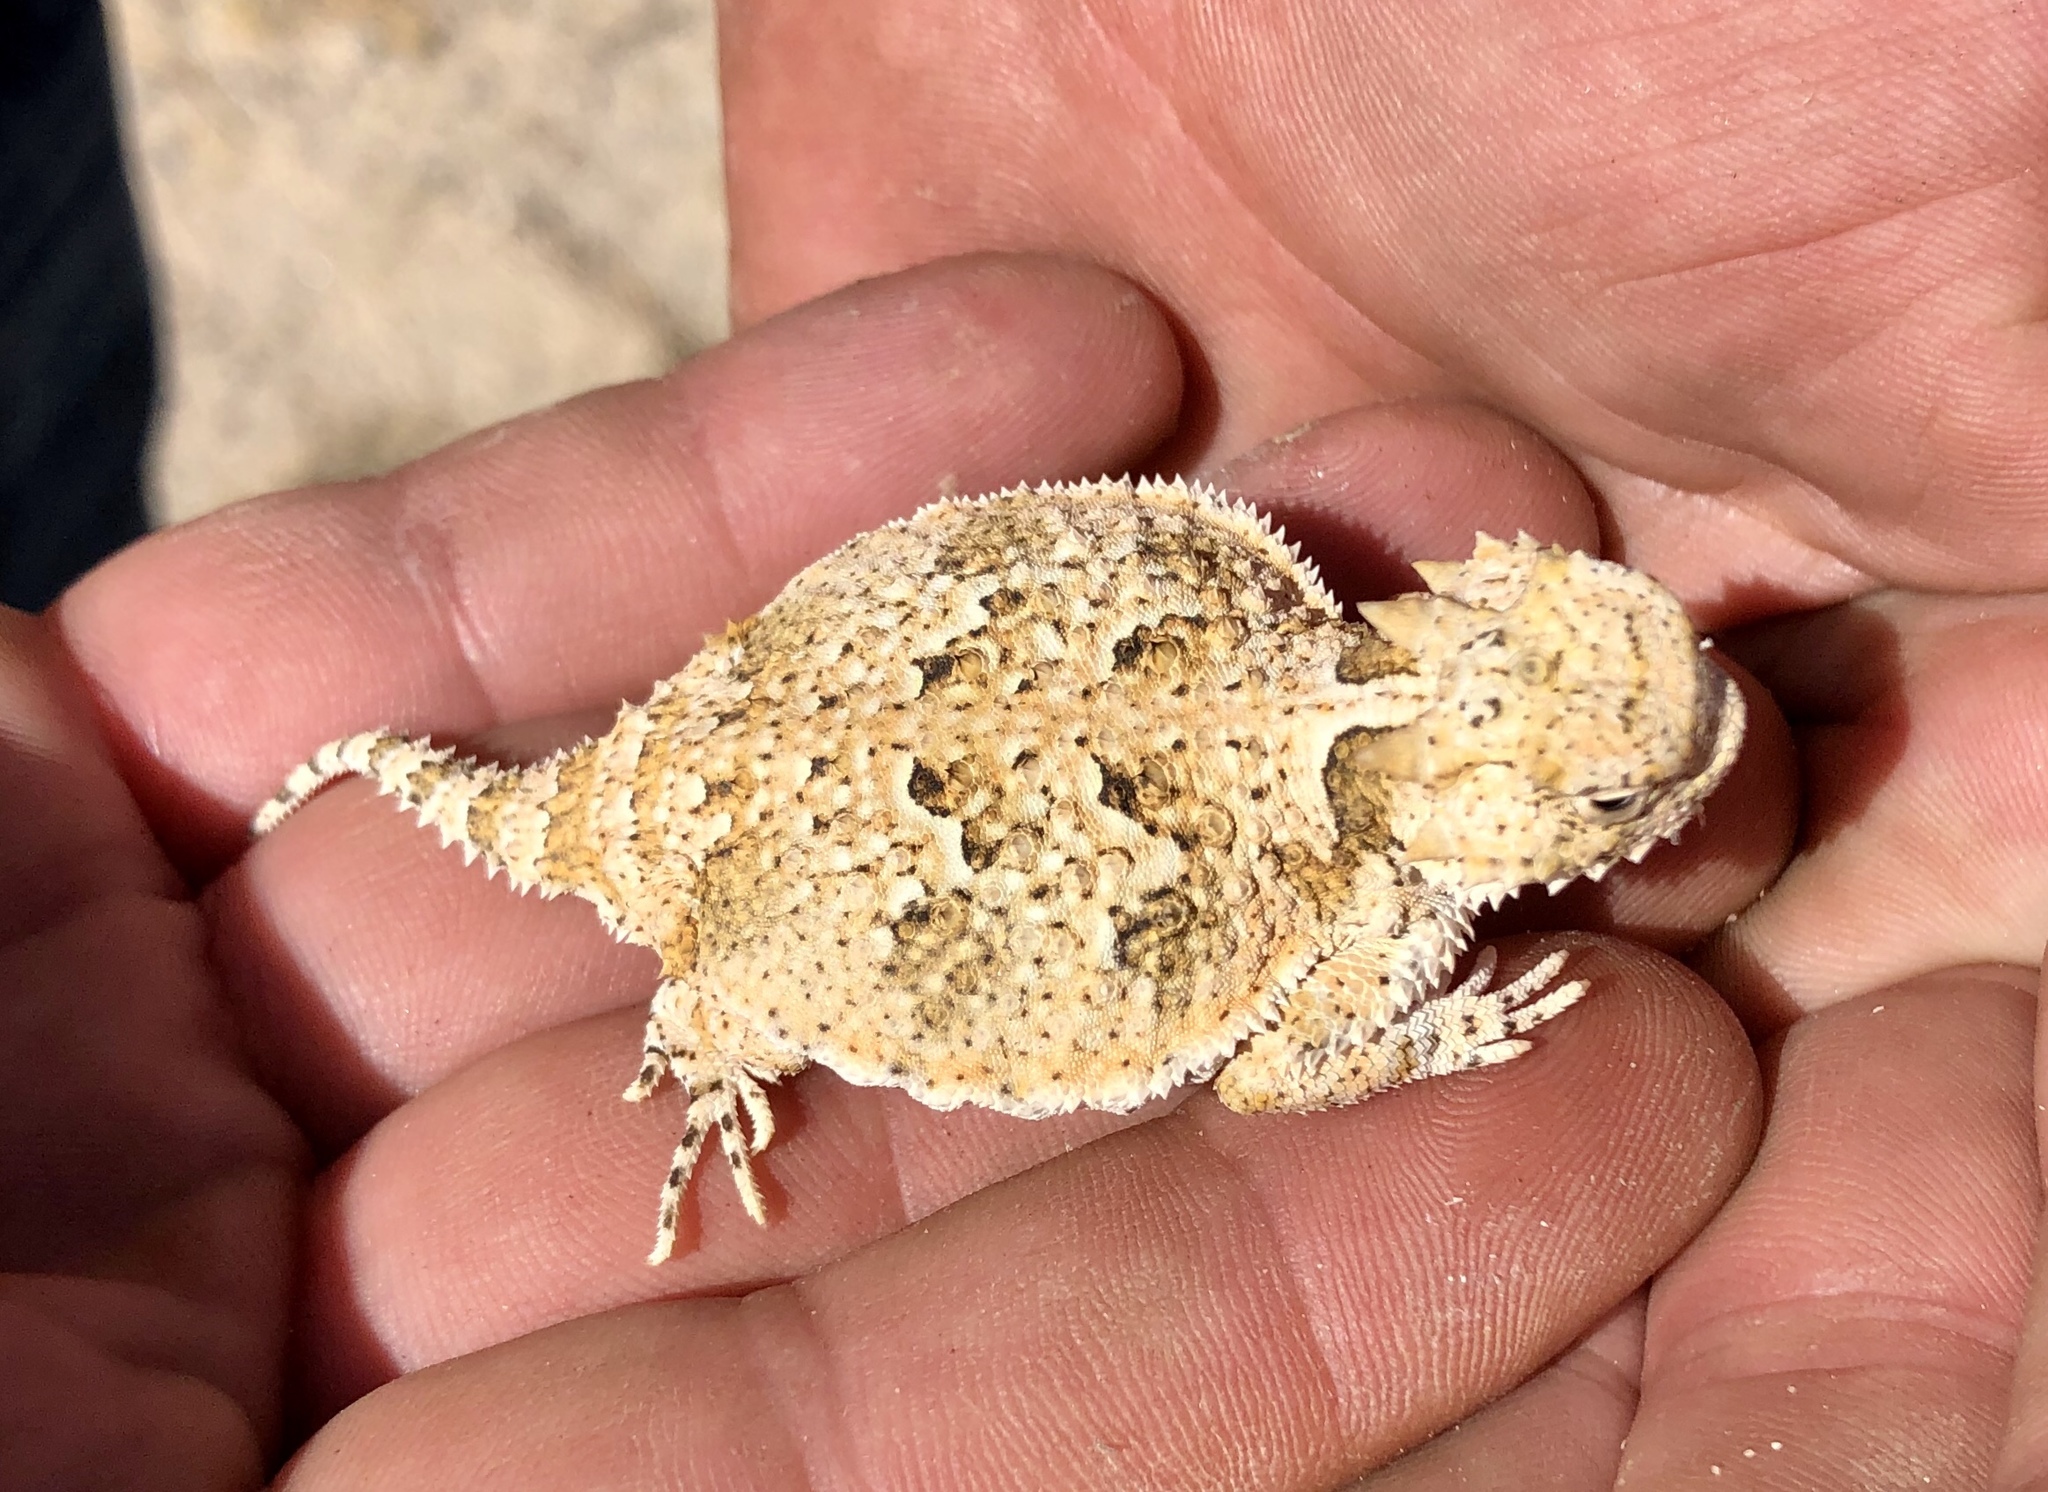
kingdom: Animalia
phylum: Chordata
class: Squamata
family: Phrynosomatidae
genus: Phrynosoma
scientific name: Phrynosoma platyrhinos
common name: Desert horned lizard
